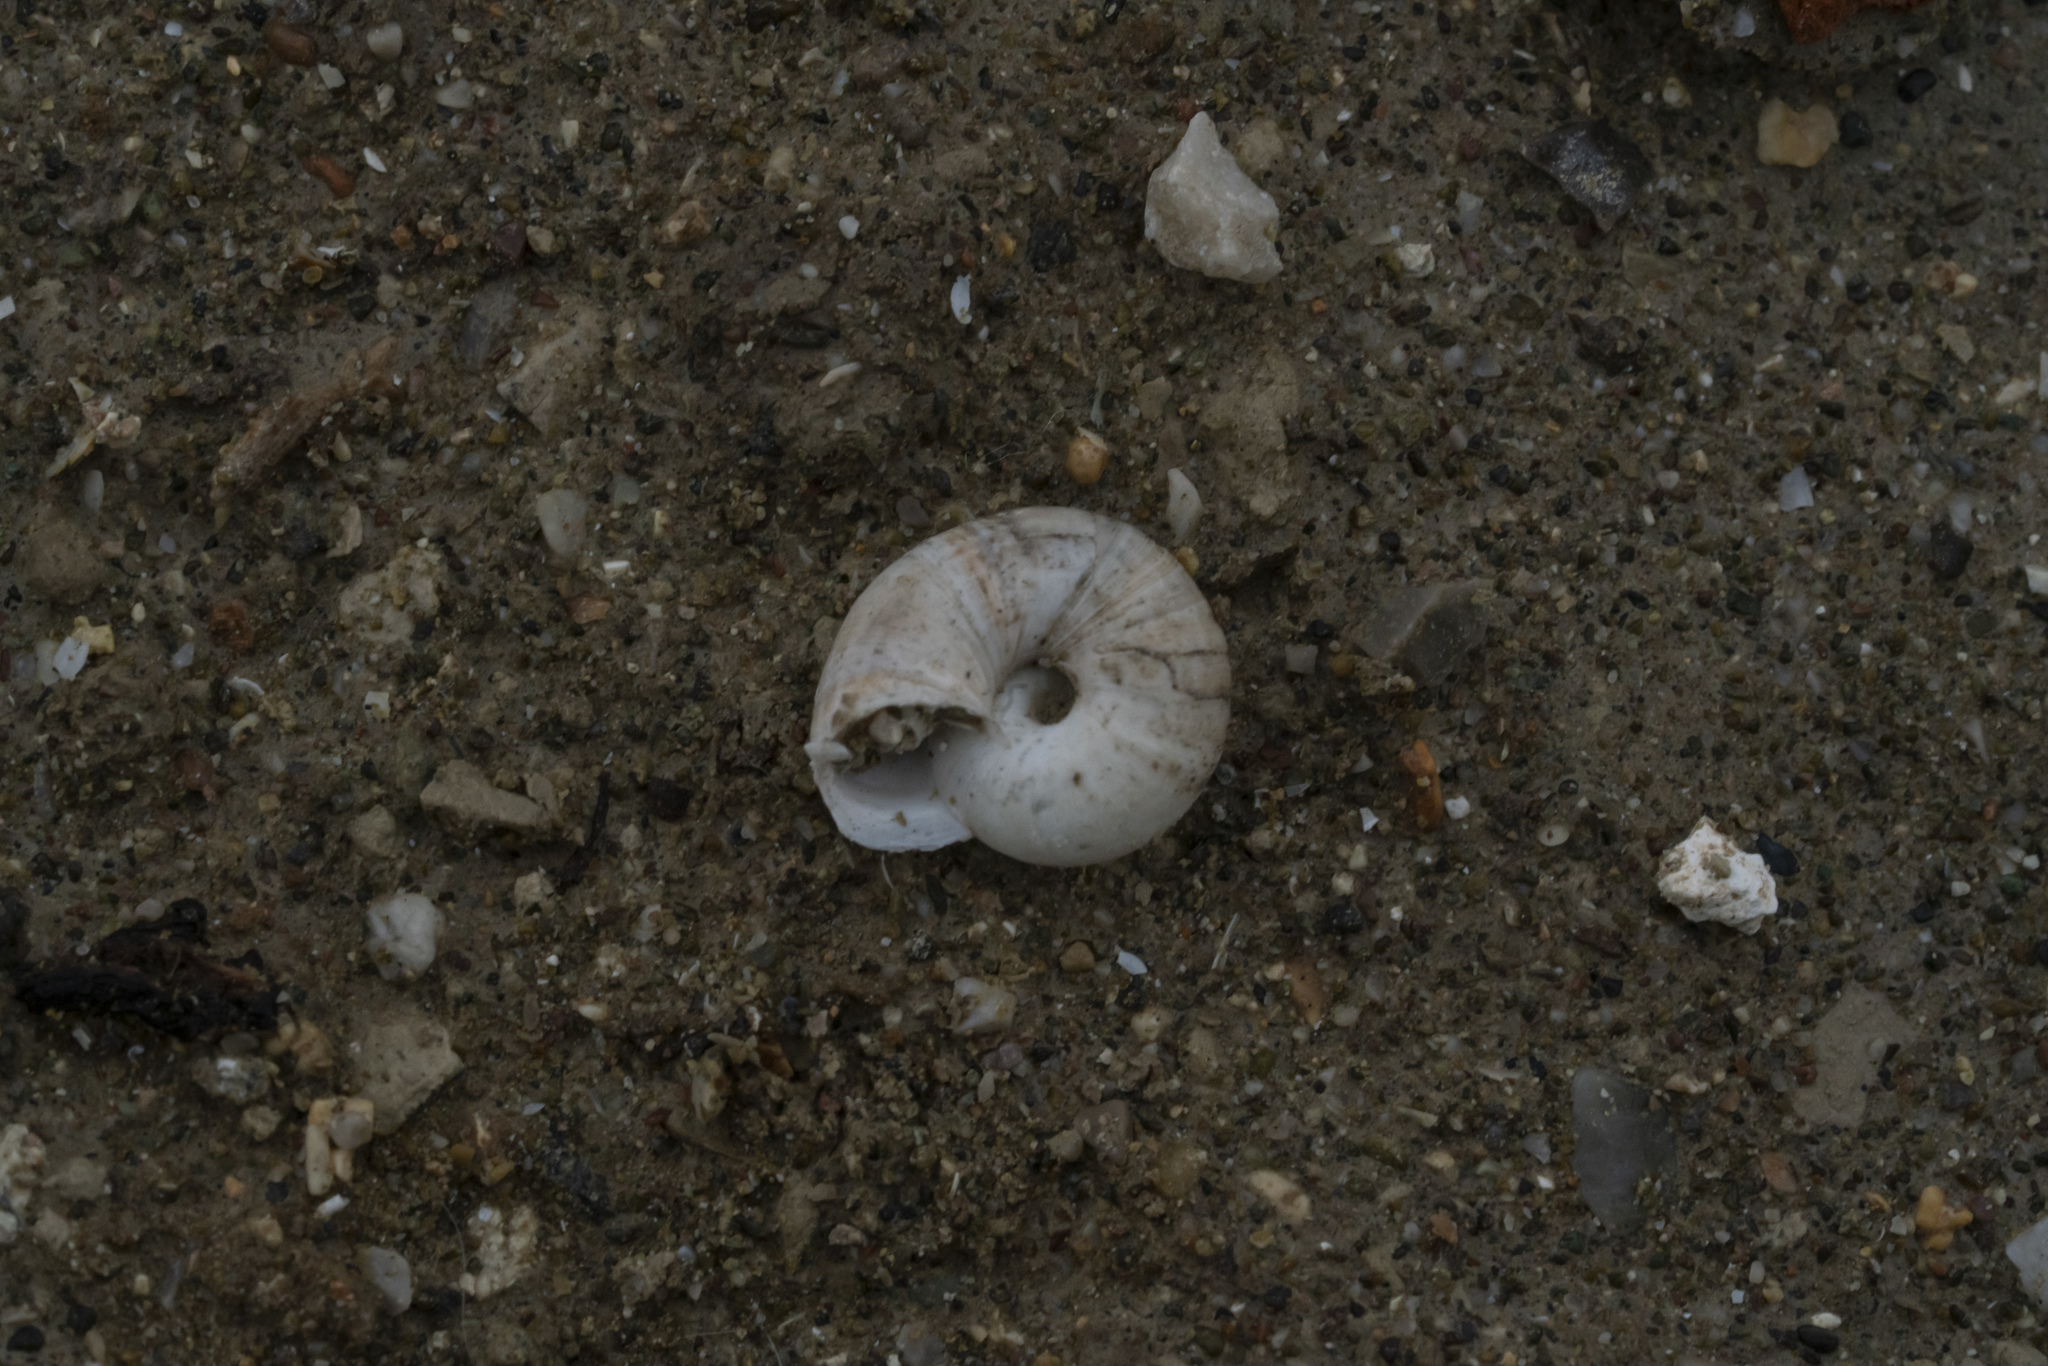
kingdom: Animalia
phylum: Mollusca
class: Gastropoda
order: Stylommatophora
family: Geomitridae
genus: Xerocrassa
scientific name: Xerocrassa cretica
